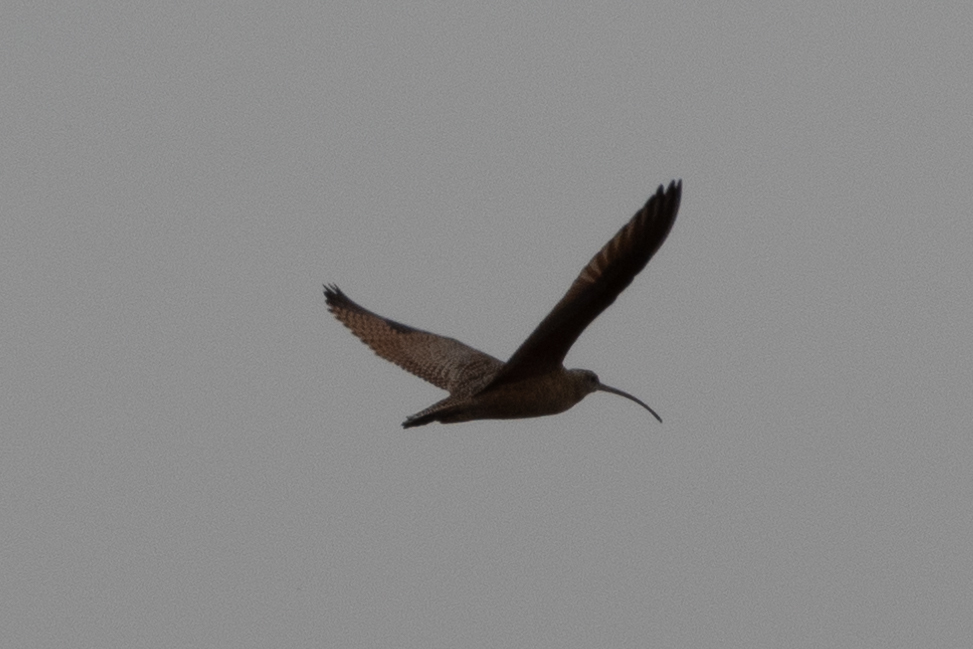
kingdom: Animalia
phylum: Chordata
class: Aves
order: Charadriiformes
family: Scolopacidae
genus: Numenius
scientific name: Numenius americanus
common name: Long-billed curlew
